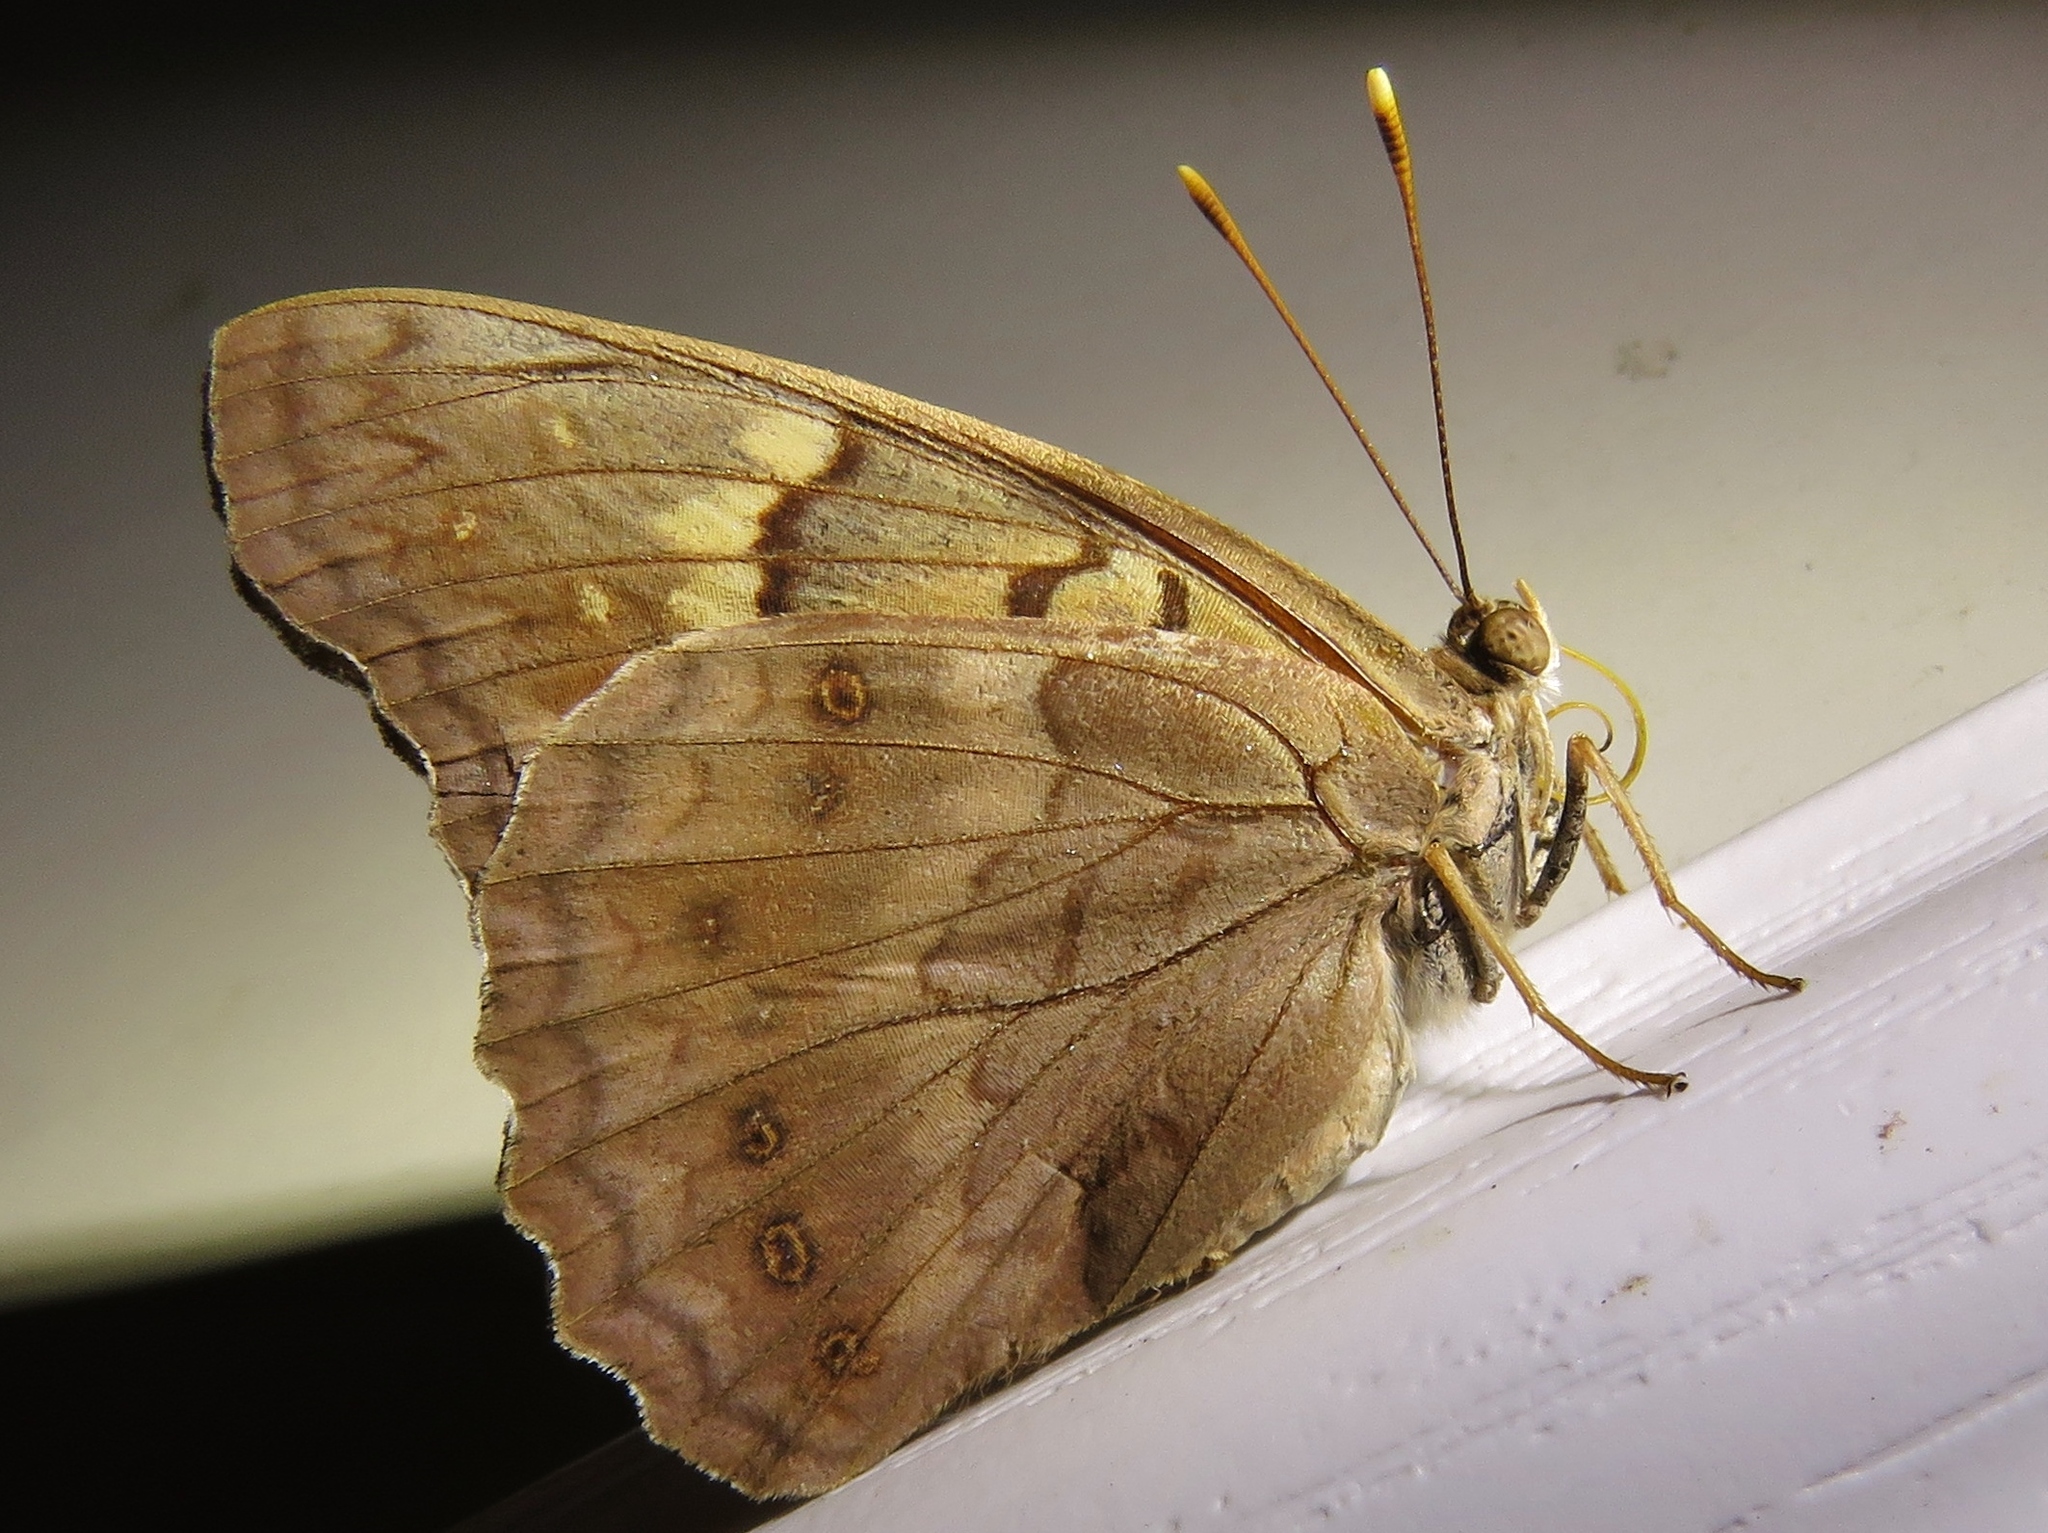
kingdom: Animalia
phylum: Arthropoda
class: Insecta
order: Lepidoptera
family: Nymphalidae
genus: Asterocampa
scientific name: Asterocampa clyton
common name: Tawny emperor
